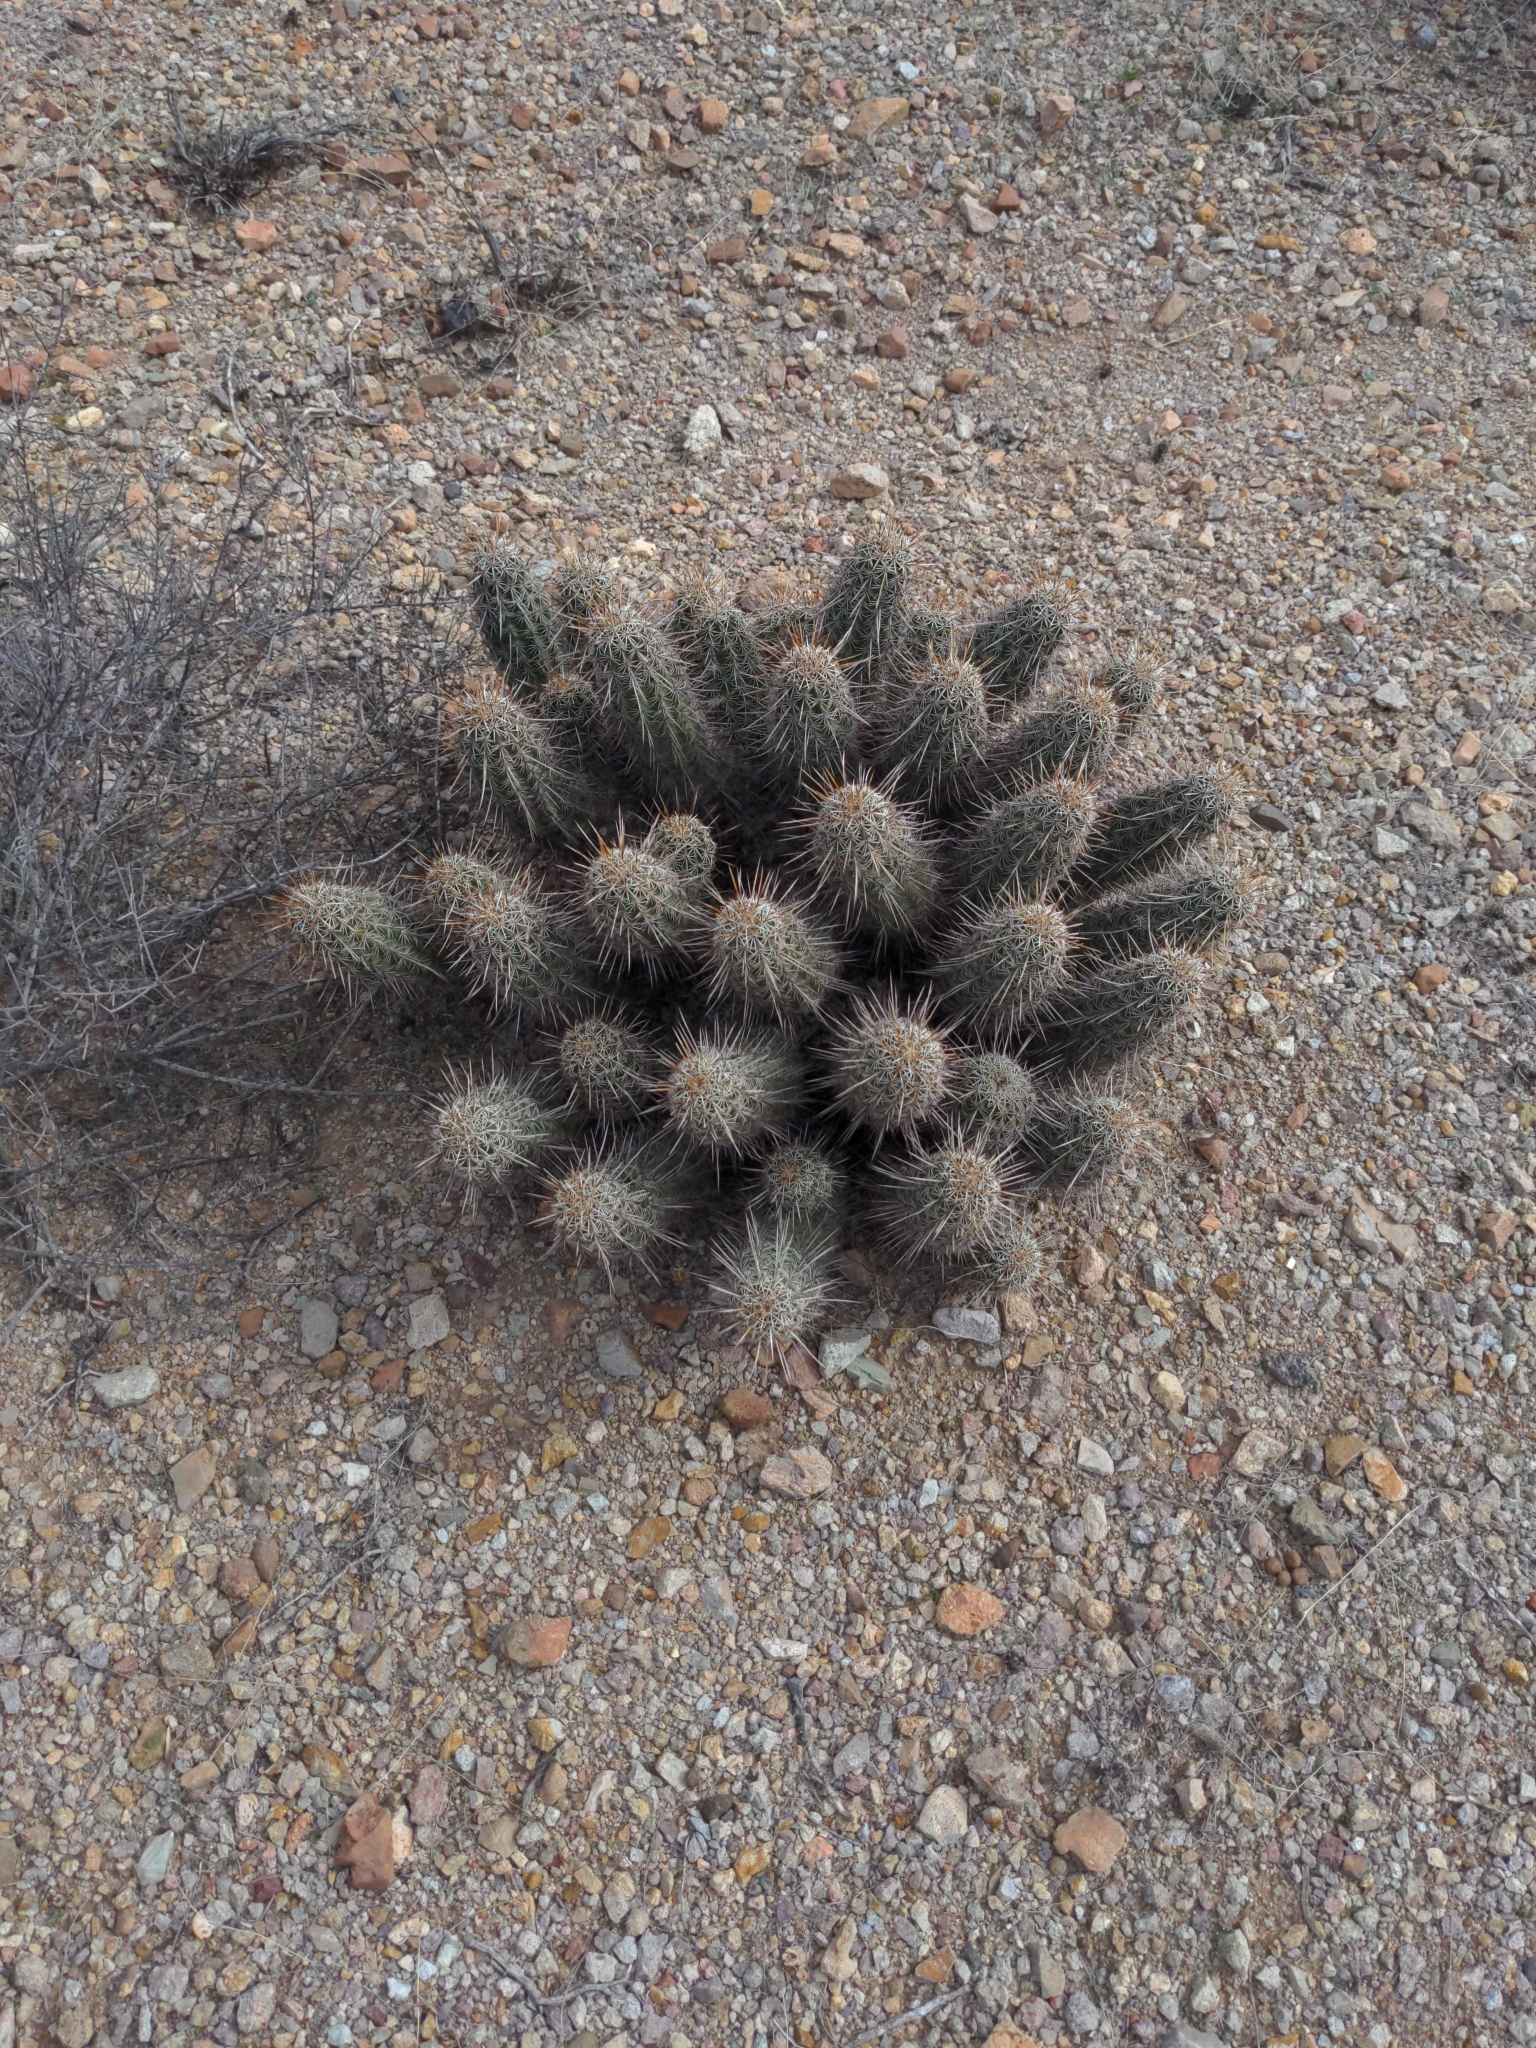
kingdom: Plantae
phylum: Tracheophyta
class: Magnoliopsida
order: Caryophyllales
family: Cactaceae
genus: Echinocereus
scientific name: Echinocereus fasciculatus
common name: Bundle hedgehog
